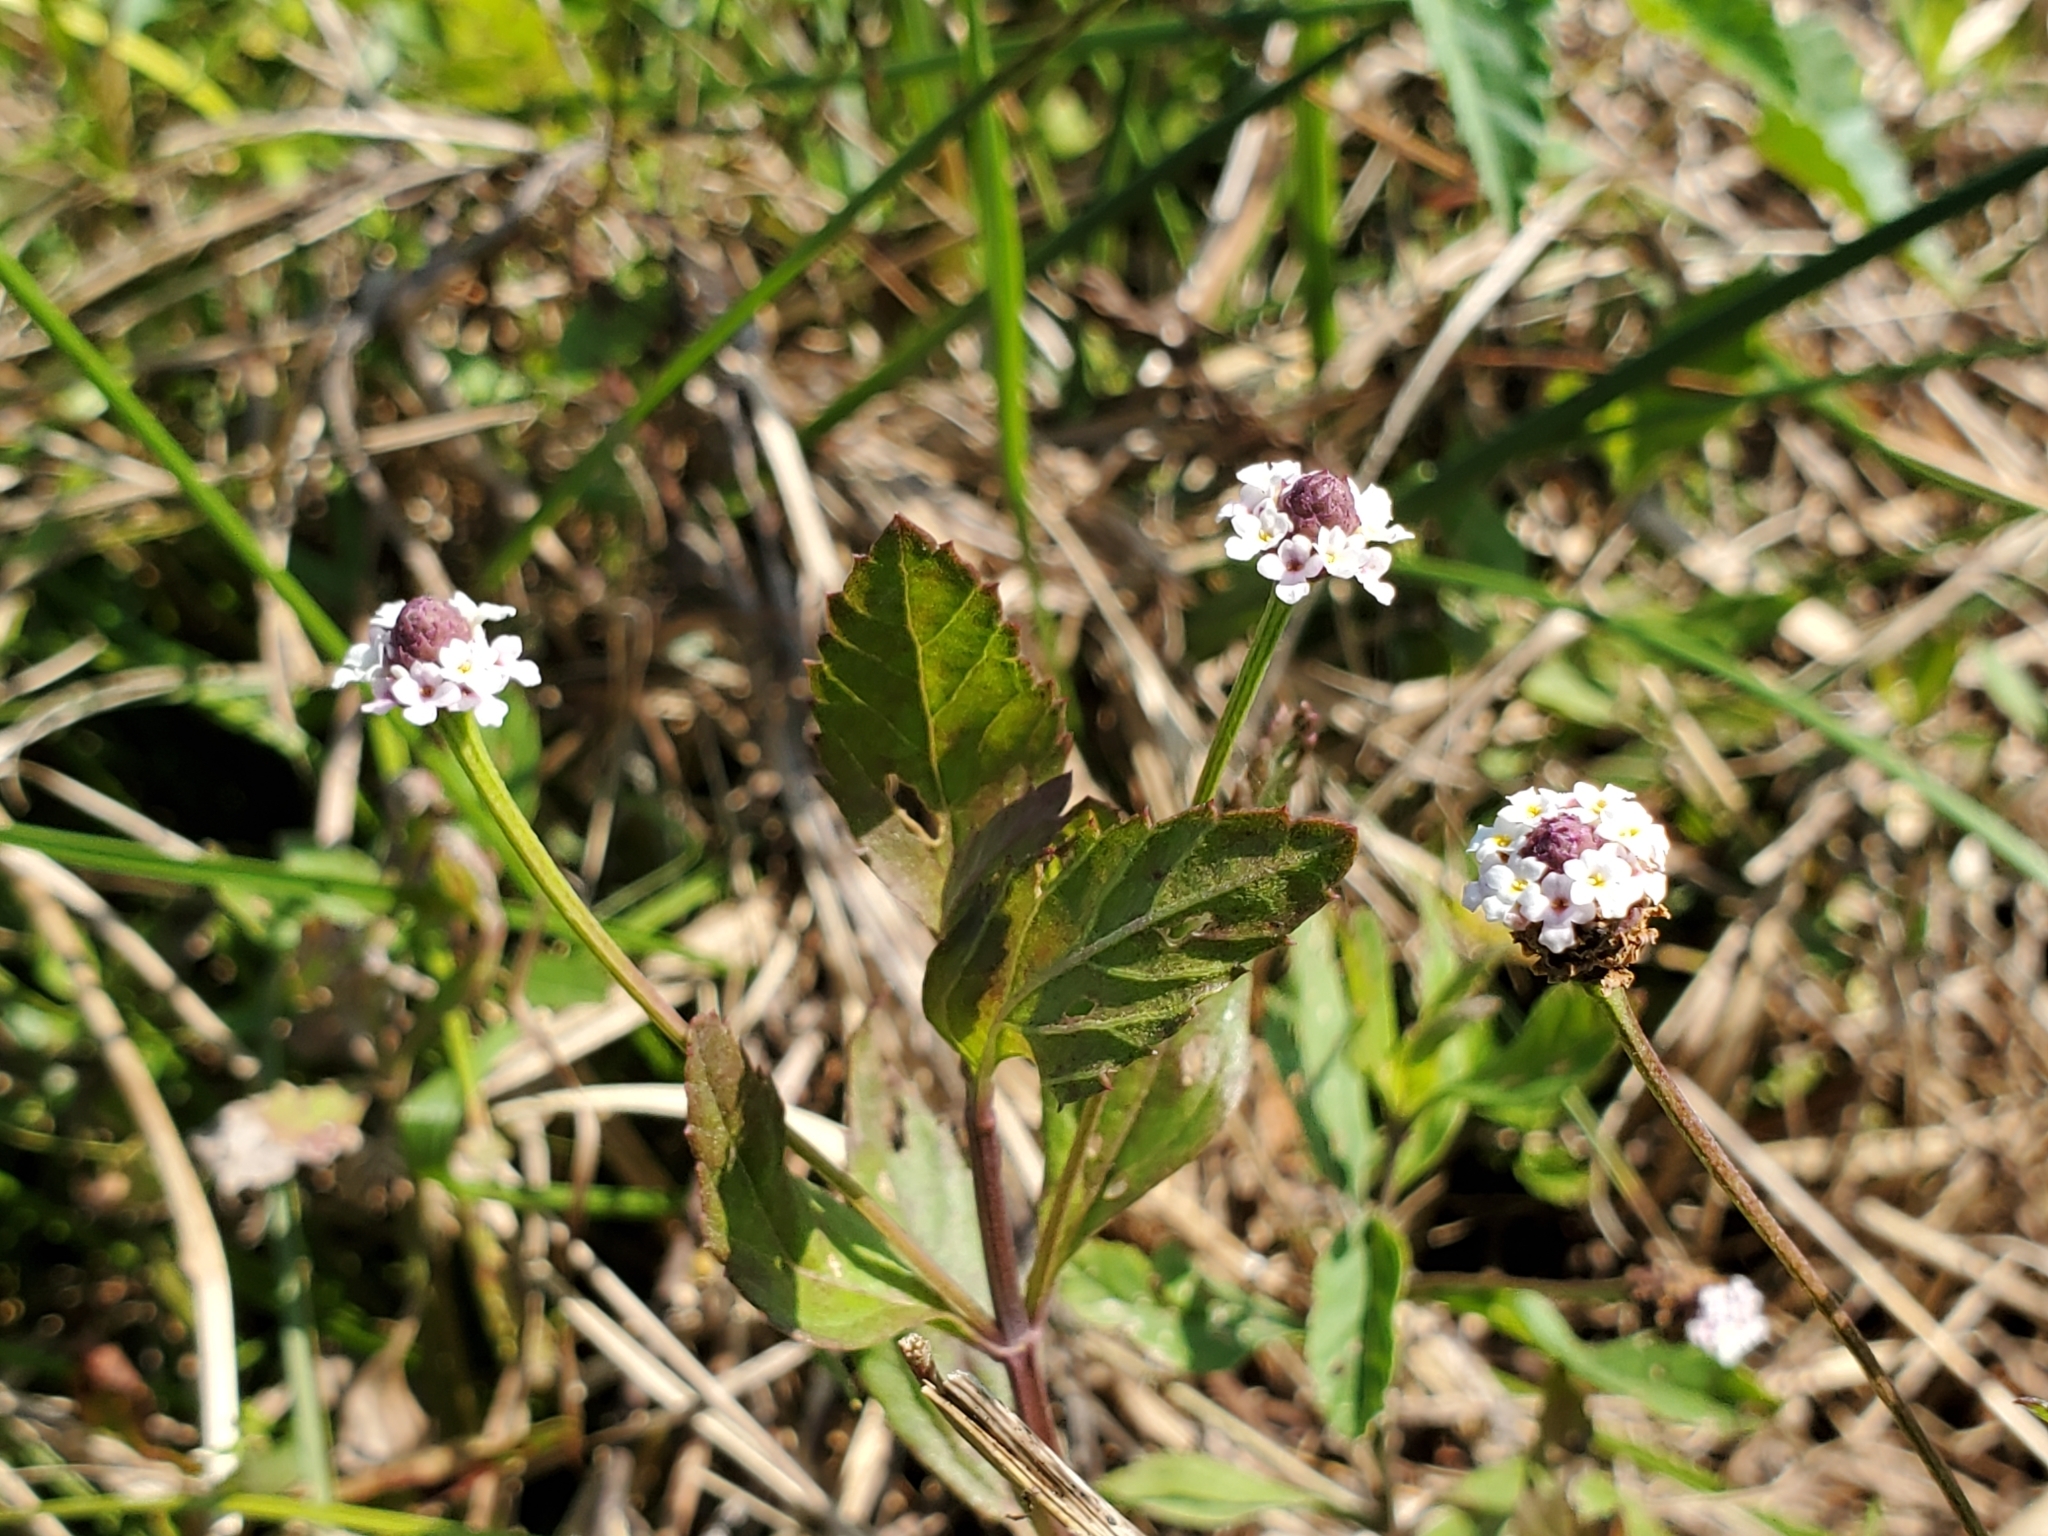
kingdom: Plantae
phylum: Tracheophyta
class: Magnoliopsida
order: Lamiales
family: Verbenaceae
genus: Phyla
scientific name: Phyla lanceolata
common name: Northern fogfruit
